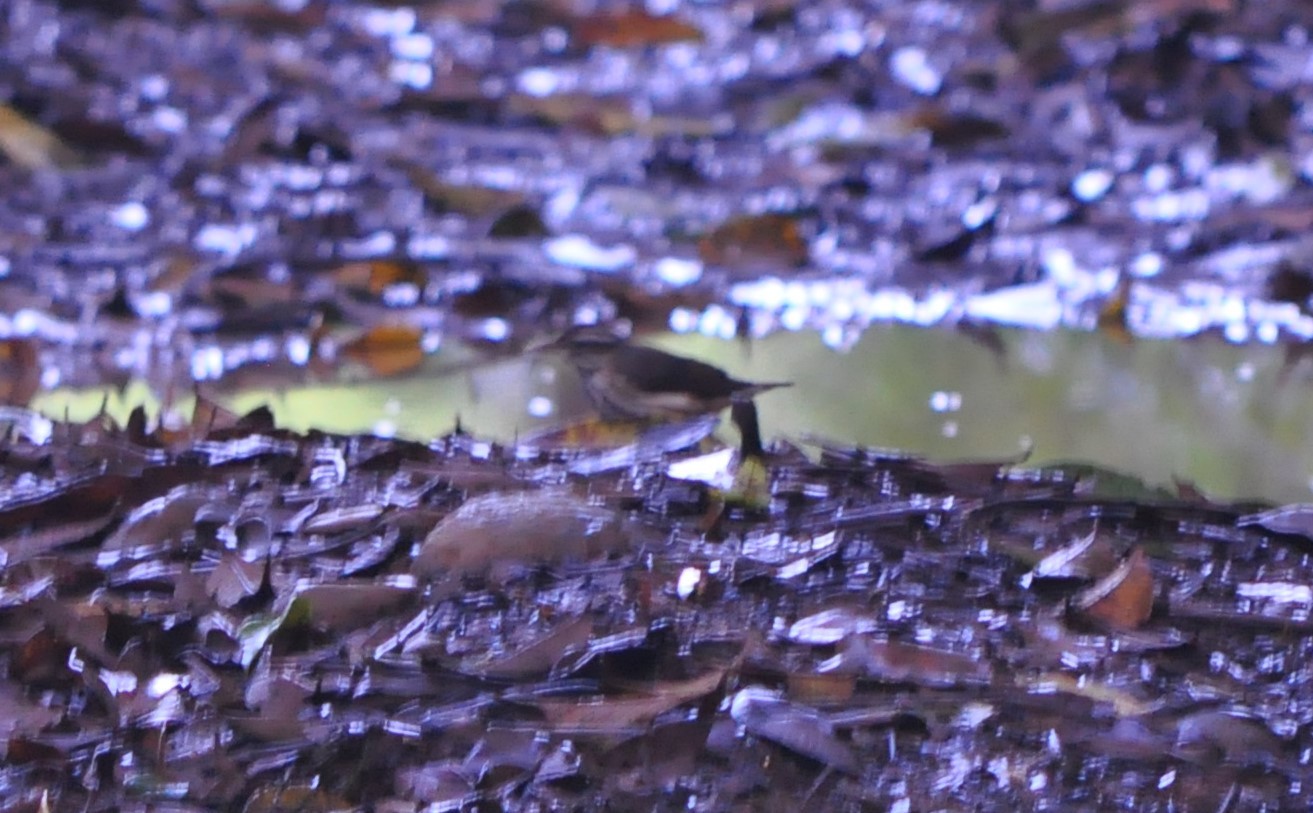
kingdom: Animalia
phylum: Chordata
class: Aves
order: Passeriformes
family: Parulidae
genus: Parkesia
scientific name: Parkesia motacilla
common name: Louisiana waterthrush
